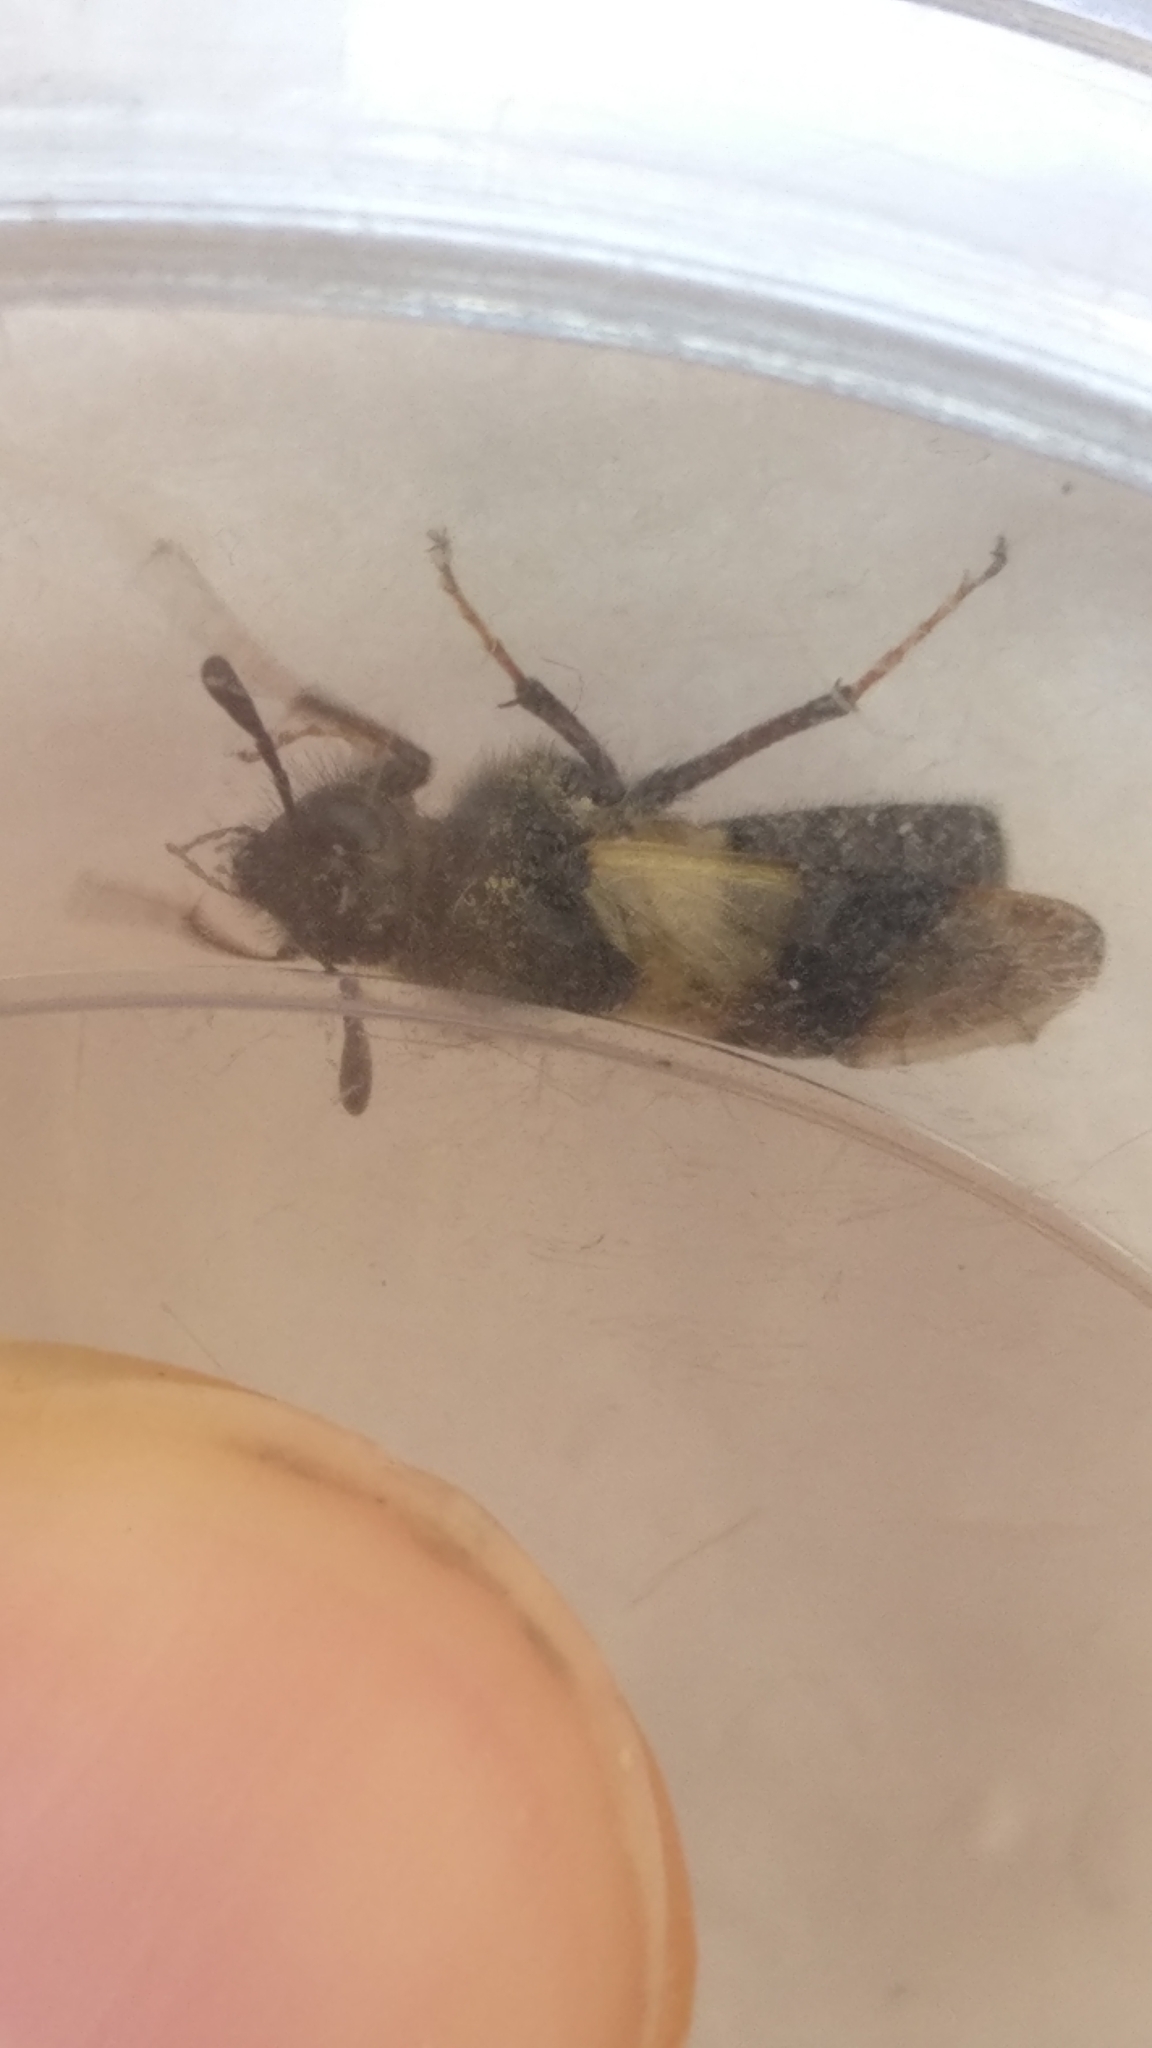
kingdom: Animalia
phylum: Arthropoda
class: Insecta
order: Hymenoptera
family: Cimbicidae
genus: Abia
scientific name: Abia fasciata
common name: Banded honeysuckle sawfly
